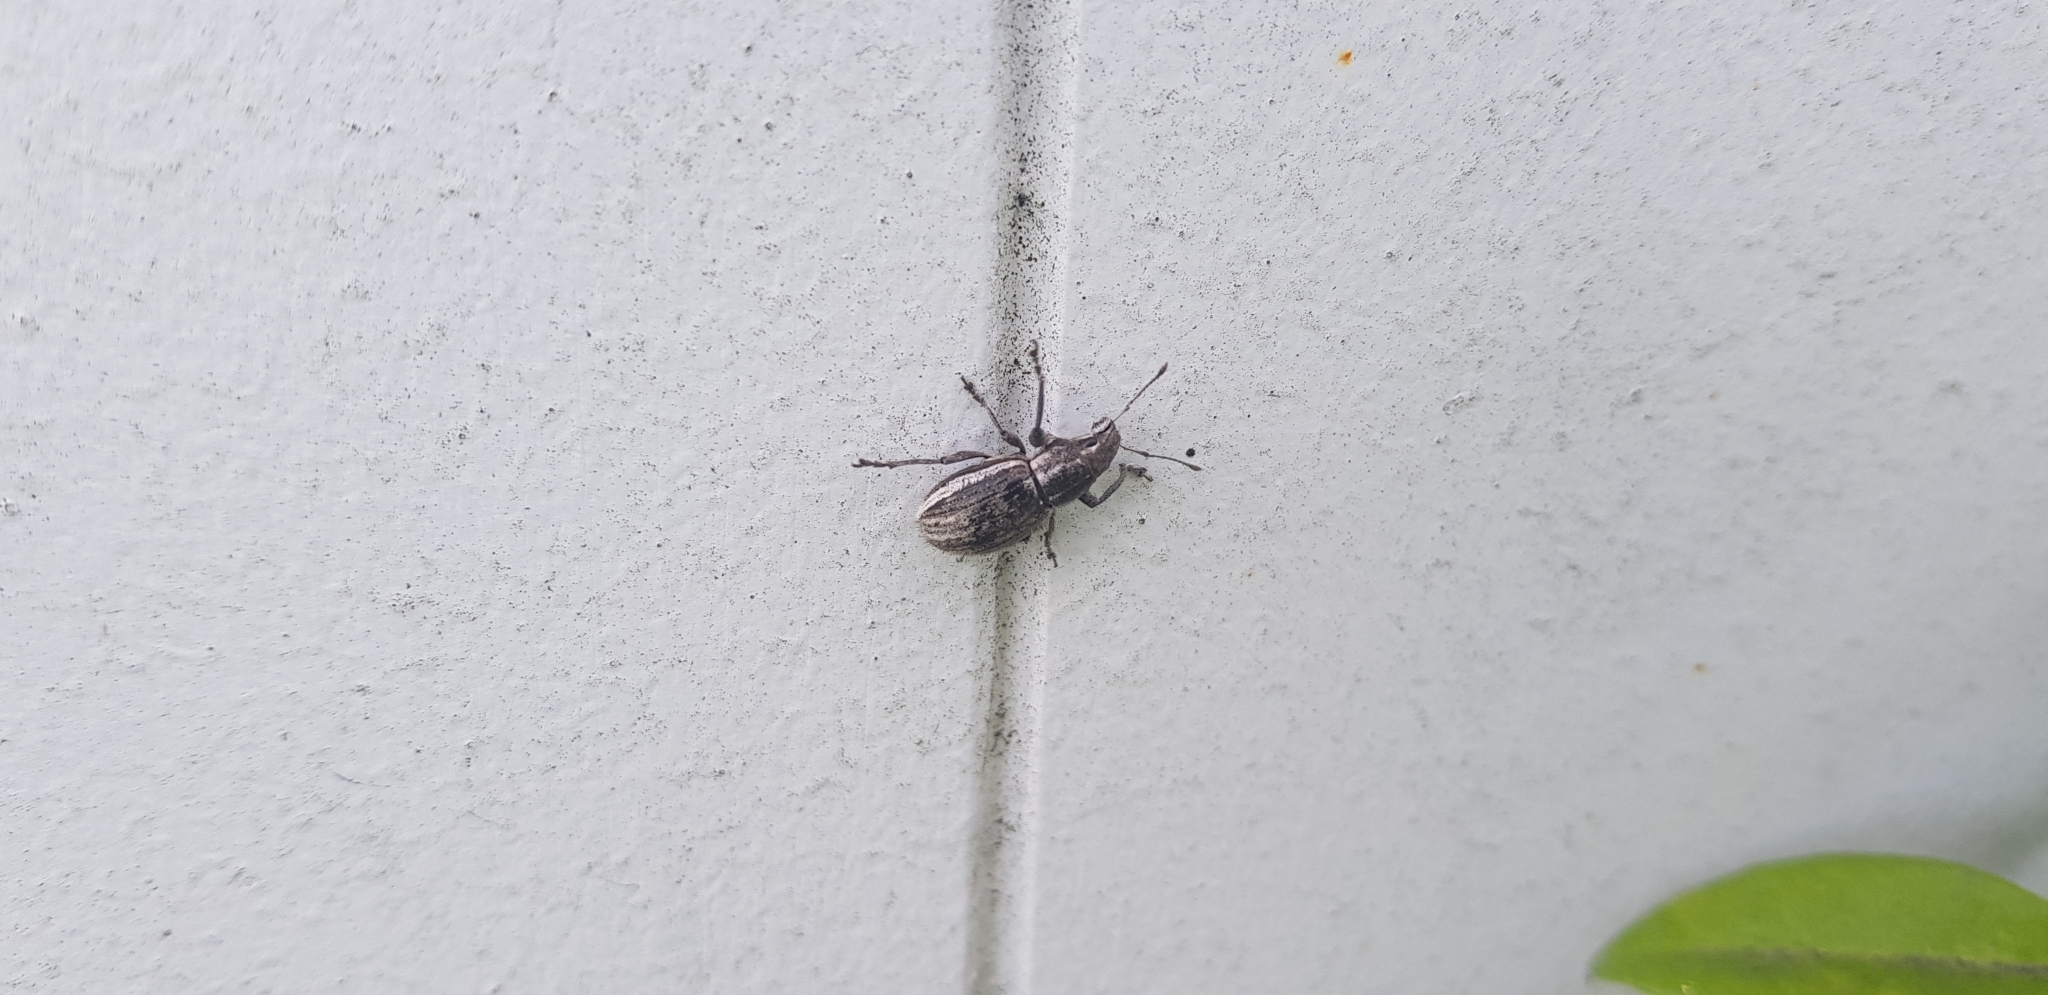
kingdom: Animalia
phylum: Arthropoda
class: Insecta
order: Coleoptera
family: Curculionidae
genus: Naupactus
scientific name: Naupactus leucoloma
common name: Whitefringed beetle
